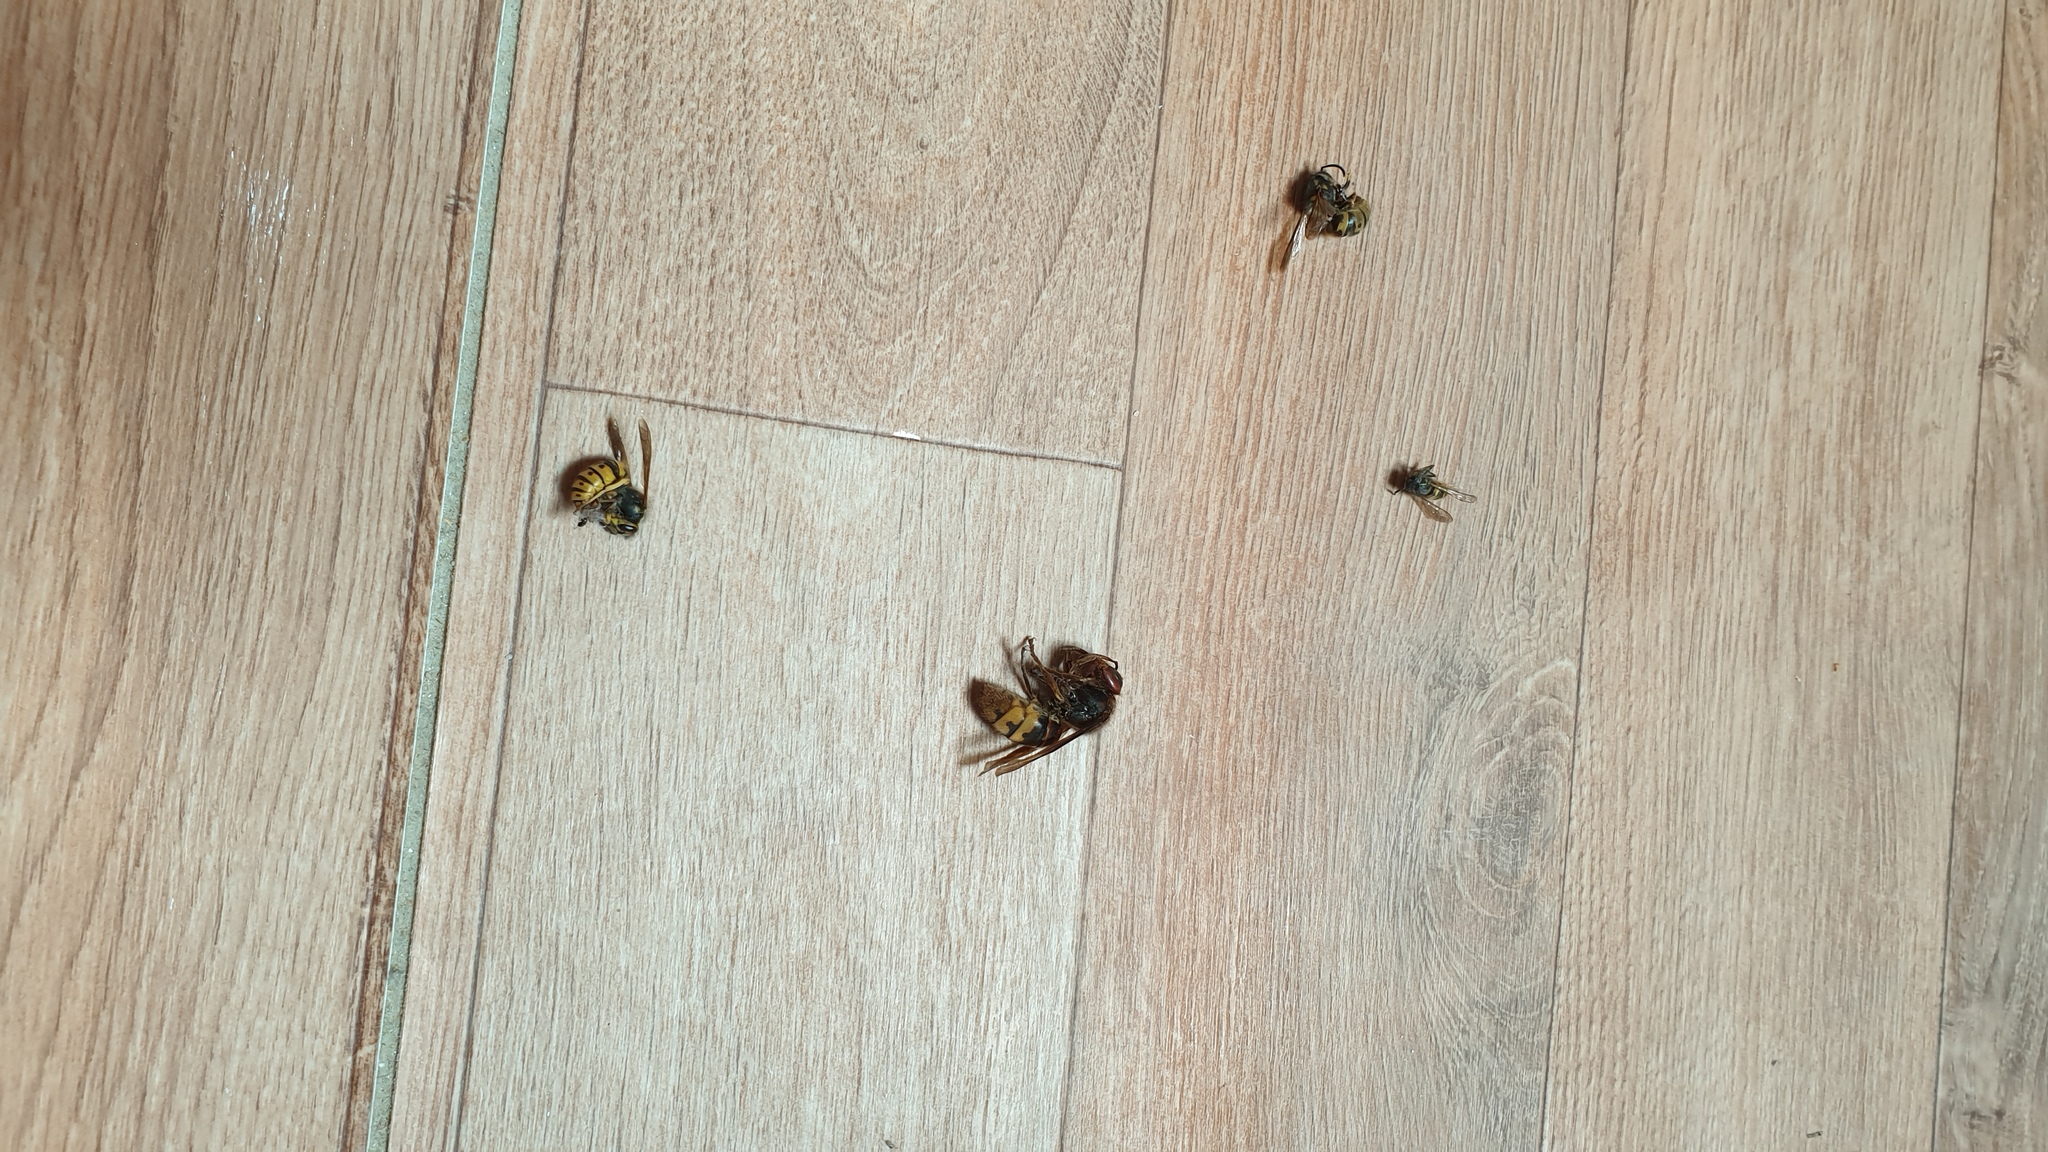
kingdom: Animalia
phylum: Arthropoda
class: Insecta
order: Hymenoptera
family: Vespidae
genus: Vespa
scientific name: Vespa crabro
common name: Hornet
